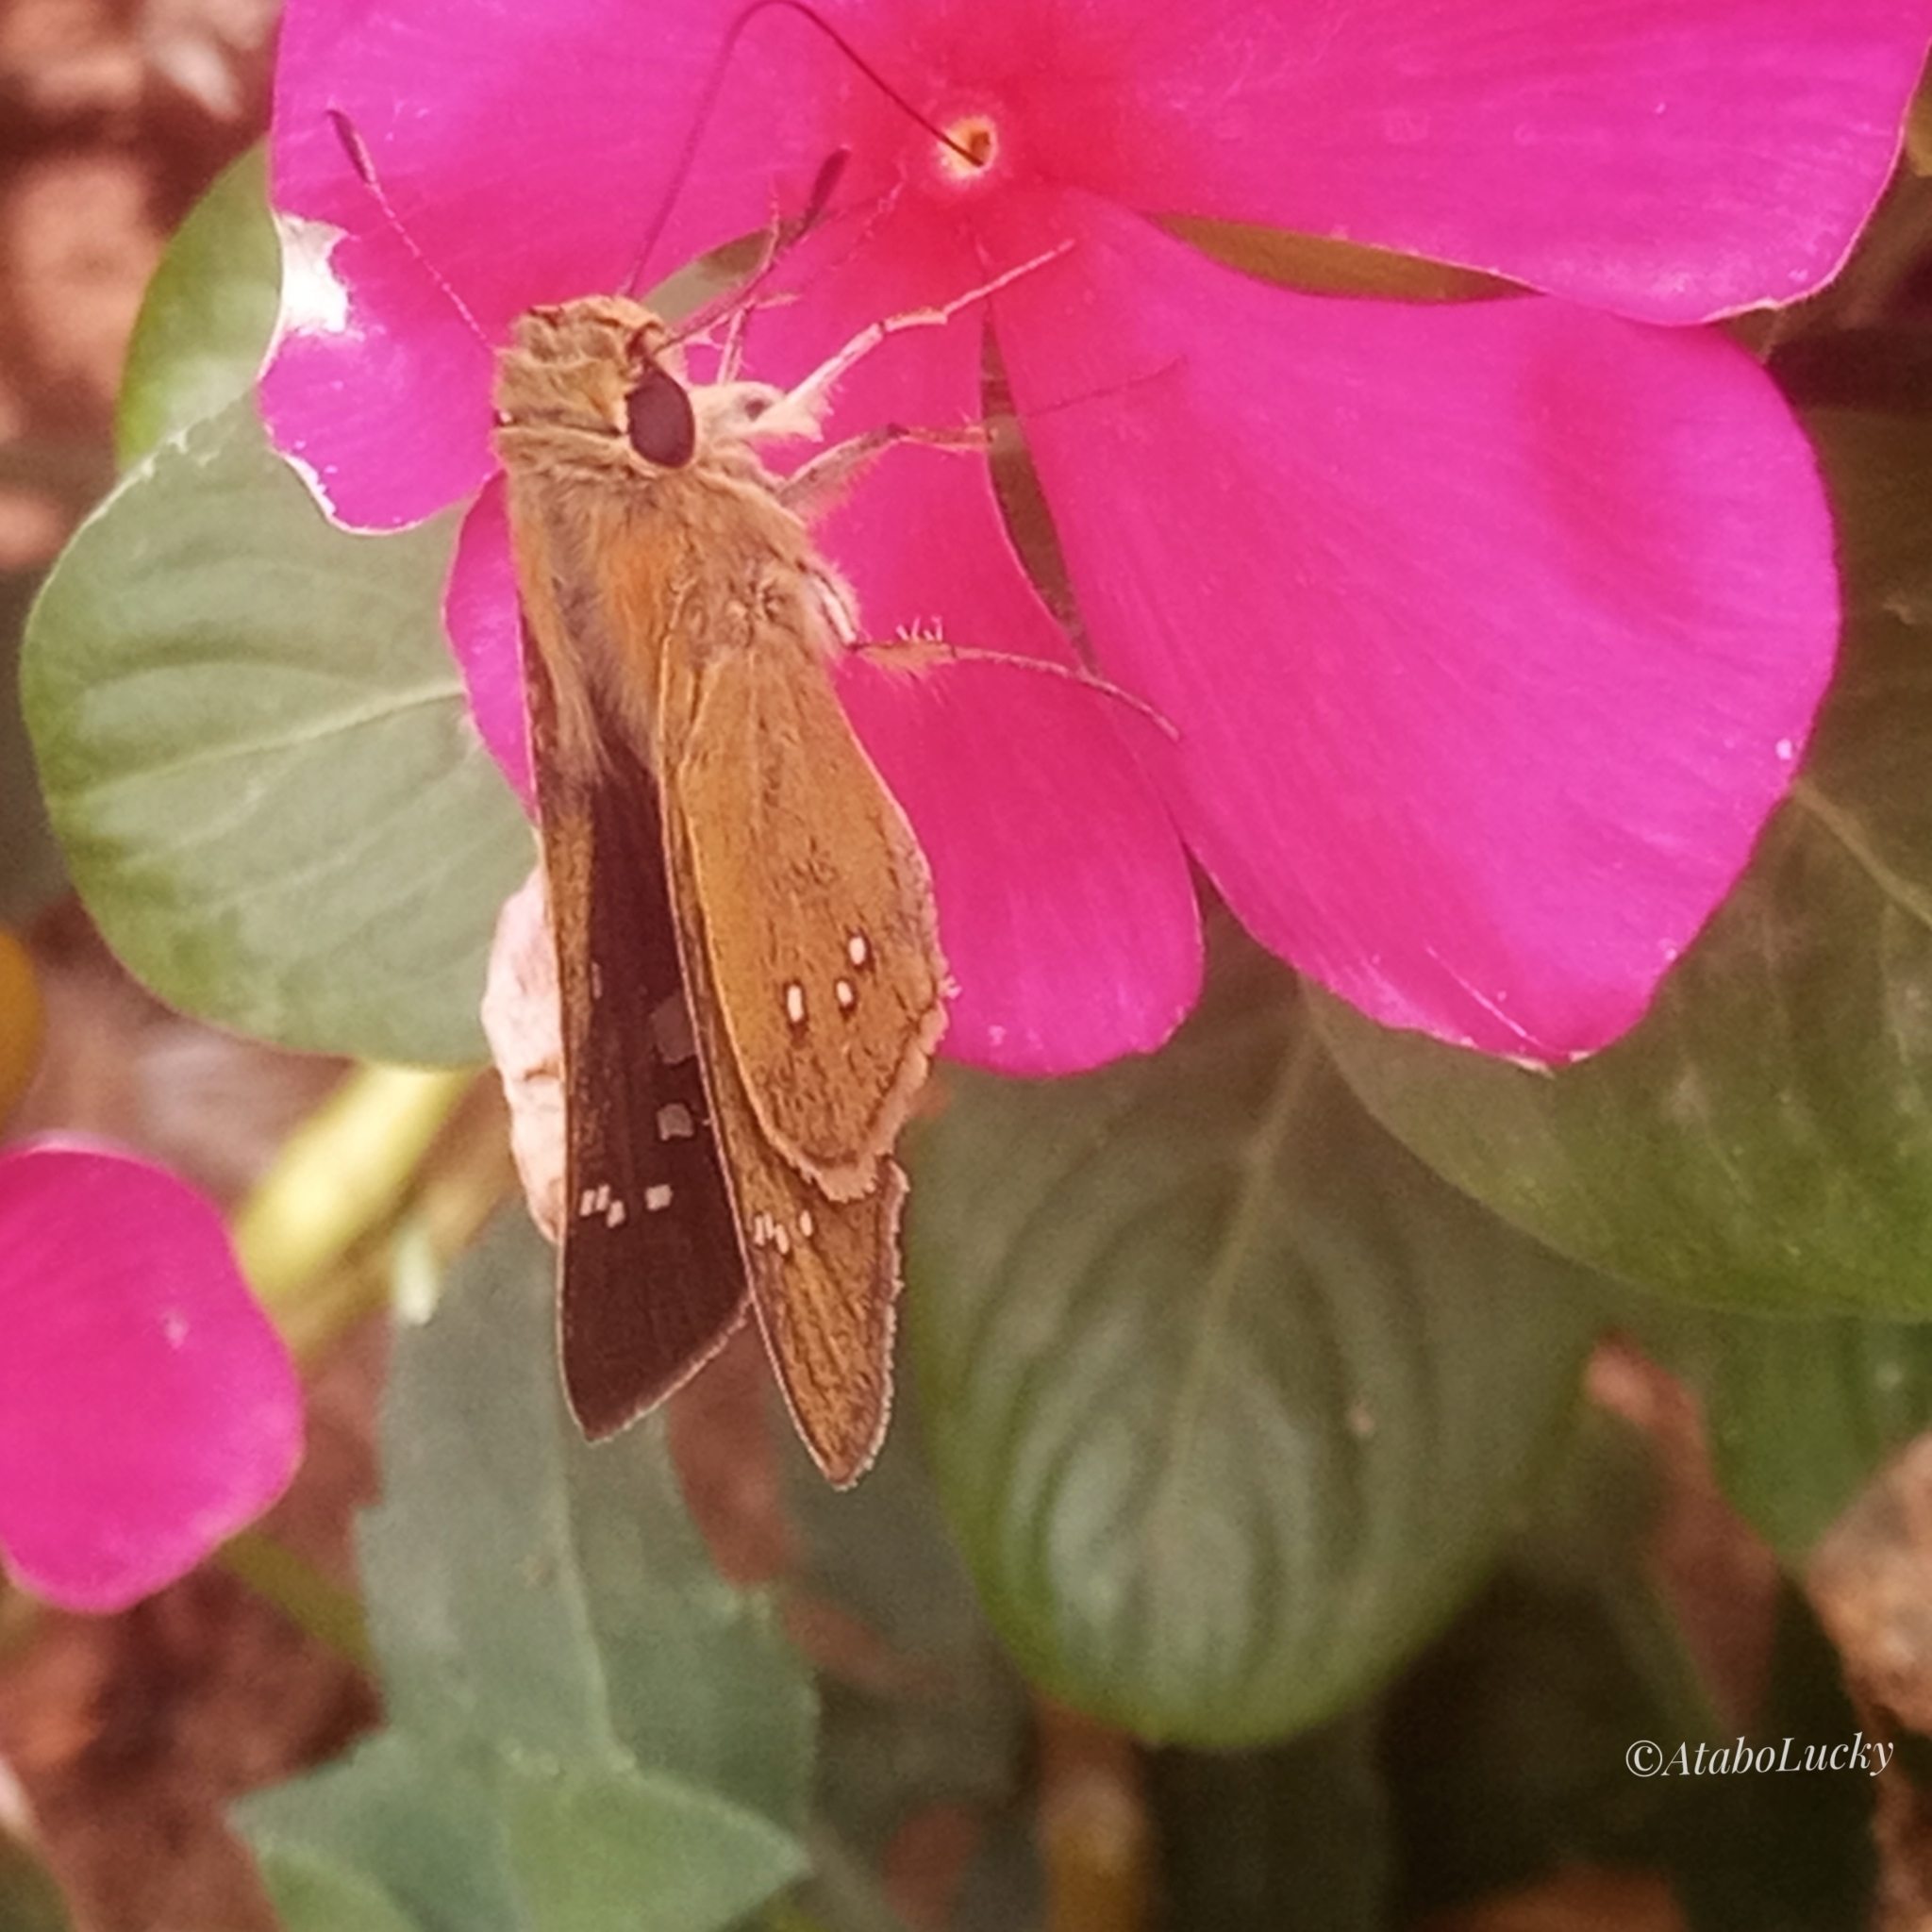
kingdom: Animalia
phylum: Arthropoda
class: Insecta
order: Lepidoptera
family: Hesperiidae
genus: Borbo
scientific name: Borbo borbonica
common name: Olive-haired swift
